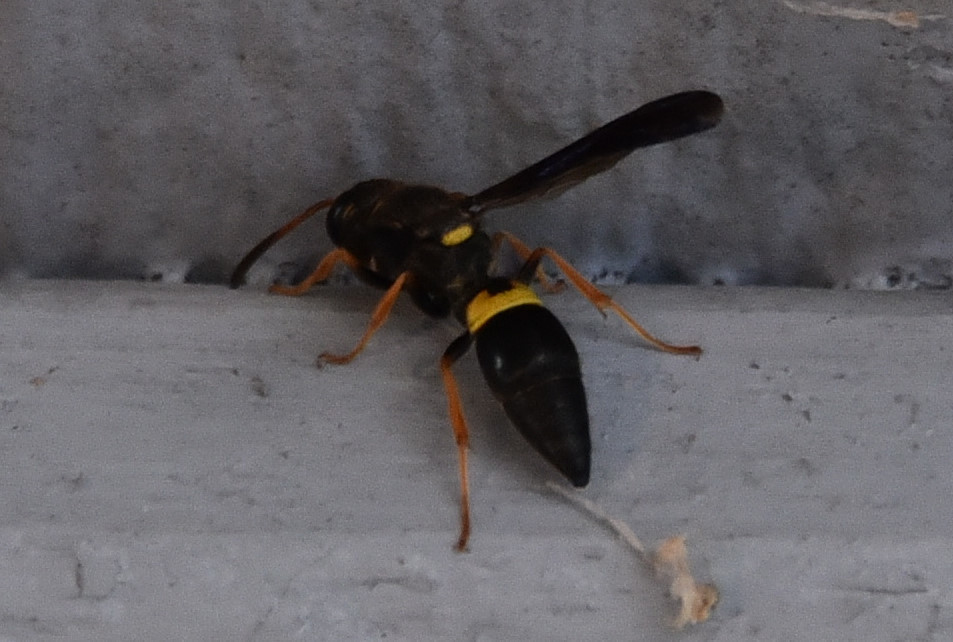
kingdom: Animalia
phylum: Arthropoda
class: Insecta
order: Hymenoptera
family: Vespidae
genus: Ancistrocerus
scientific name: Ancistrocerus unifasciatus
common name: One-banded mason wasp
